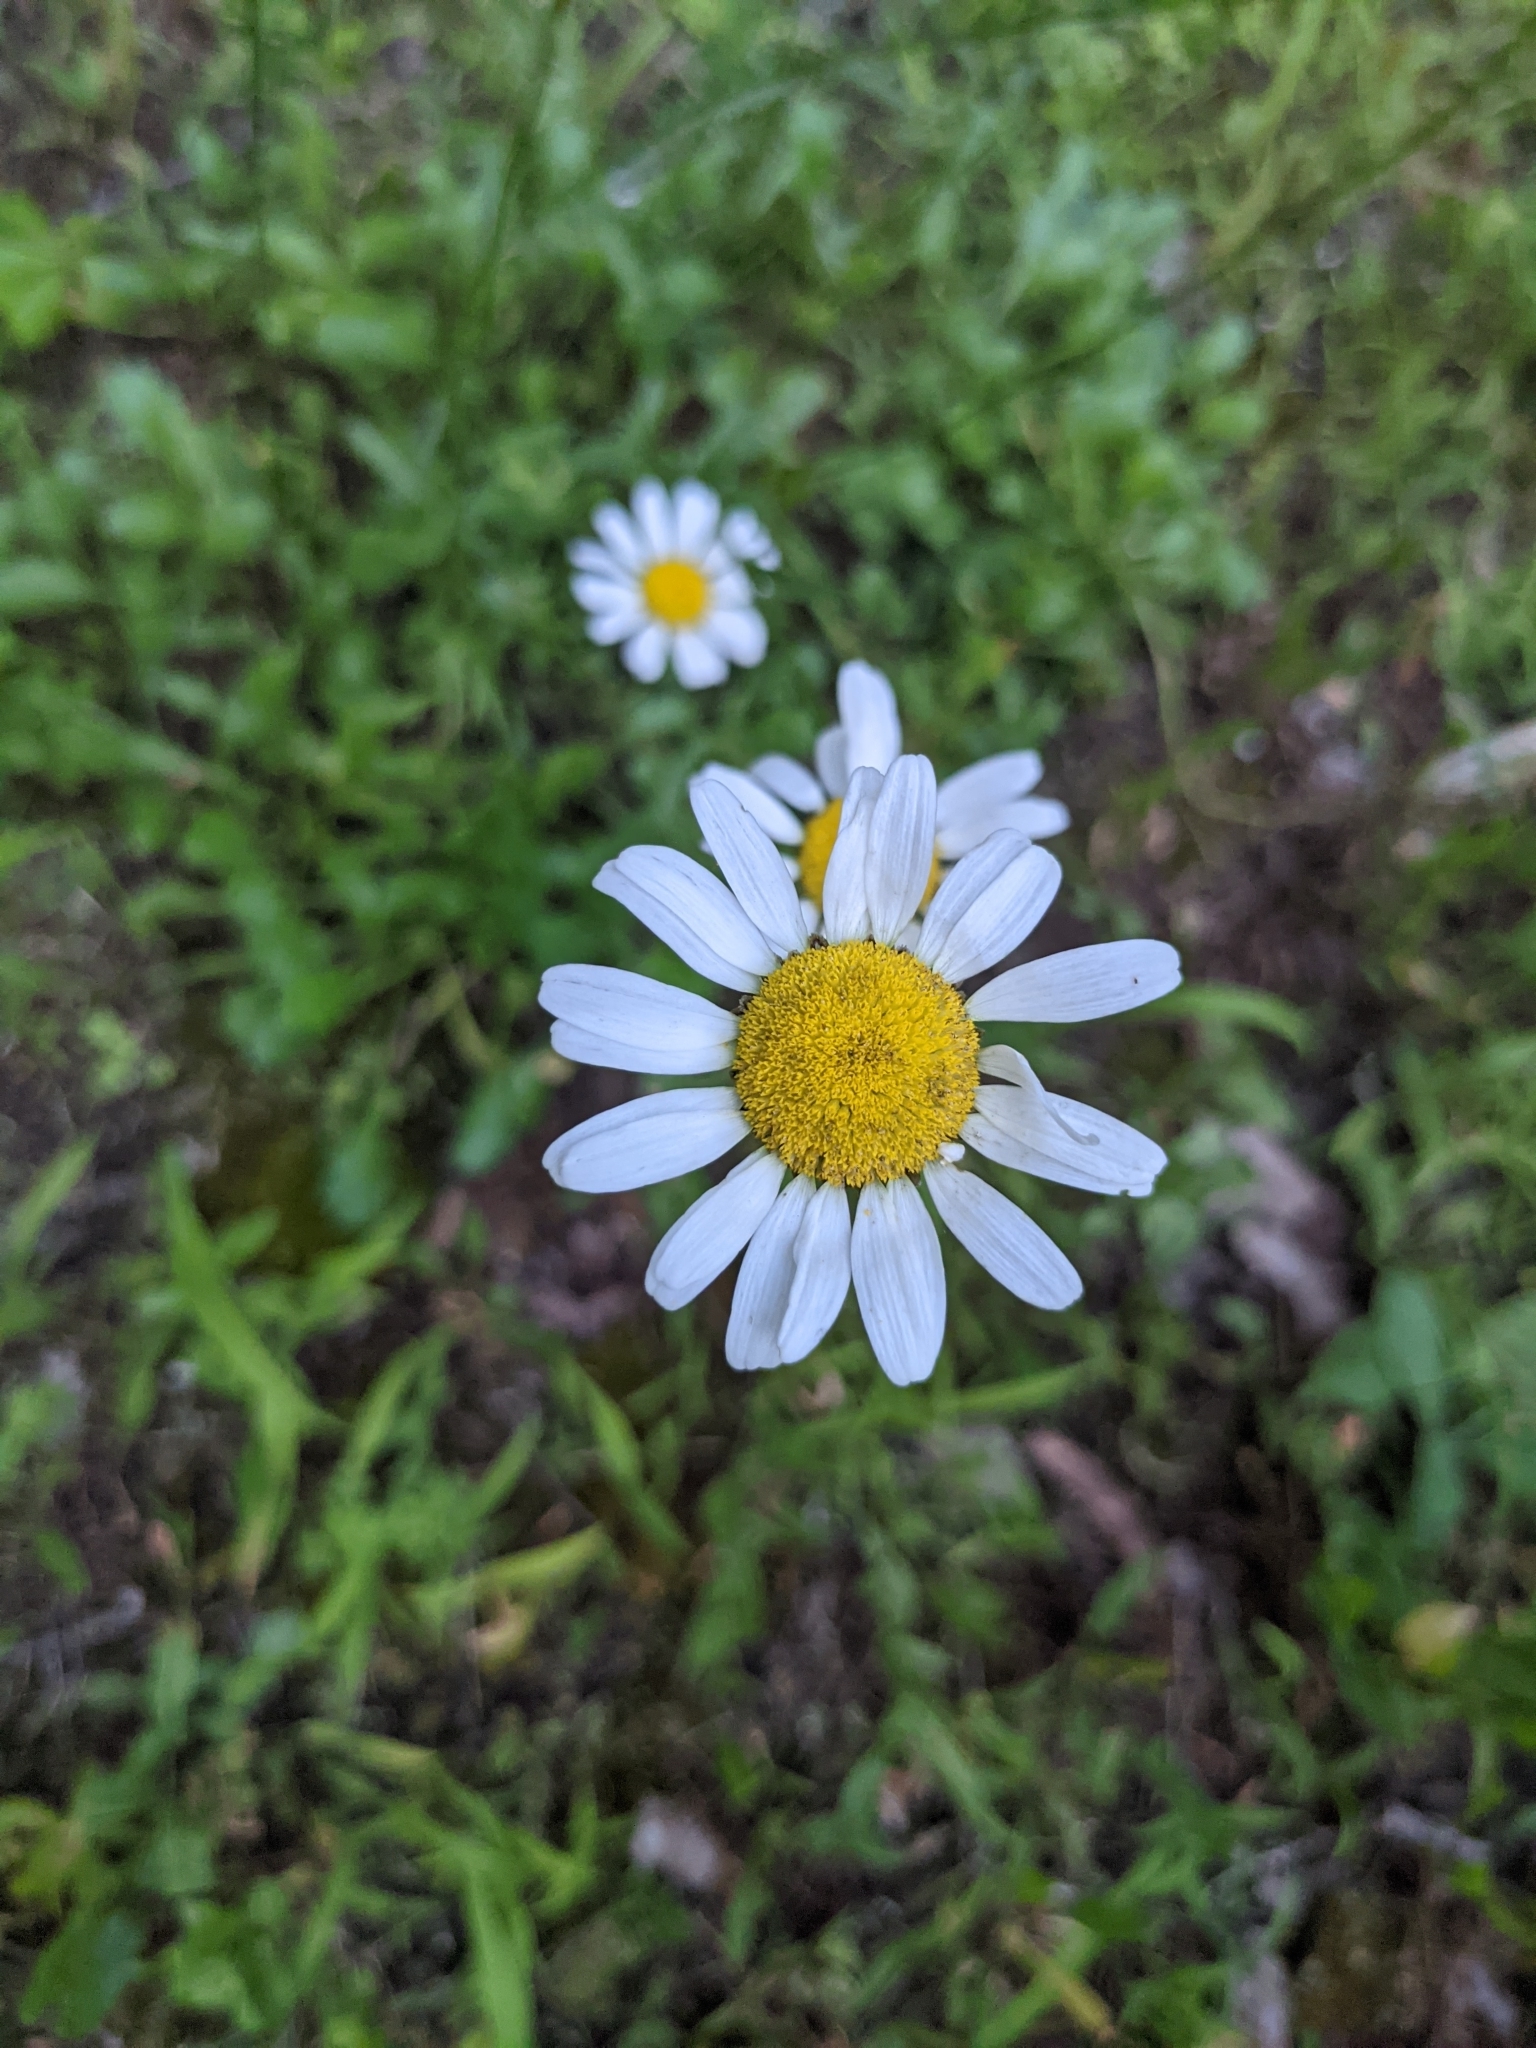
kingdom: Plantae
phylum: Tracheophyta
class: Magnoliopsida
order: Asterales
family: Asteraceae
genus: Leucanthemum
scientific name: Leucanthemum vulgare
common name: Oxeye daisy
